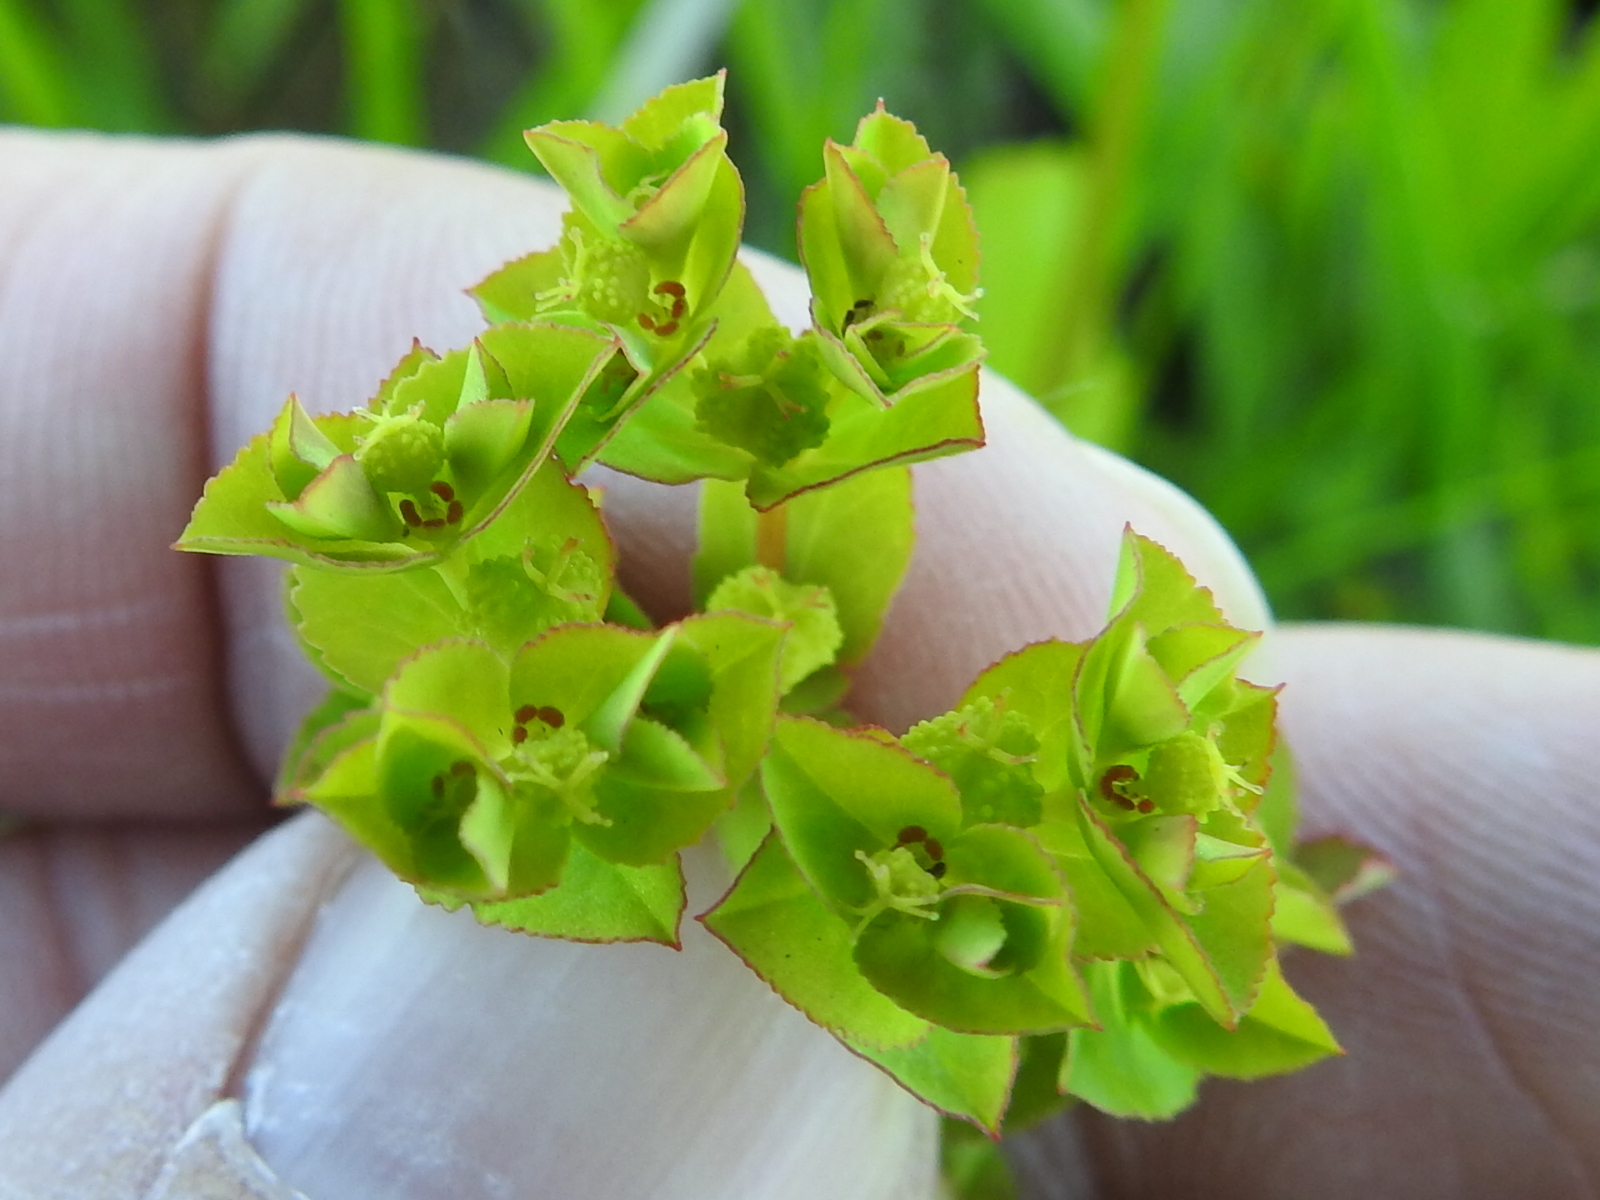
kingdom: Plantae
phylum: Tracheophyta
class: Magnoliopsida
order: Malpighiales
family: Euphorbiaceae
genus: Euphorbia
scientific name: Euphorbia spathulata
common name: Blunt spurge
